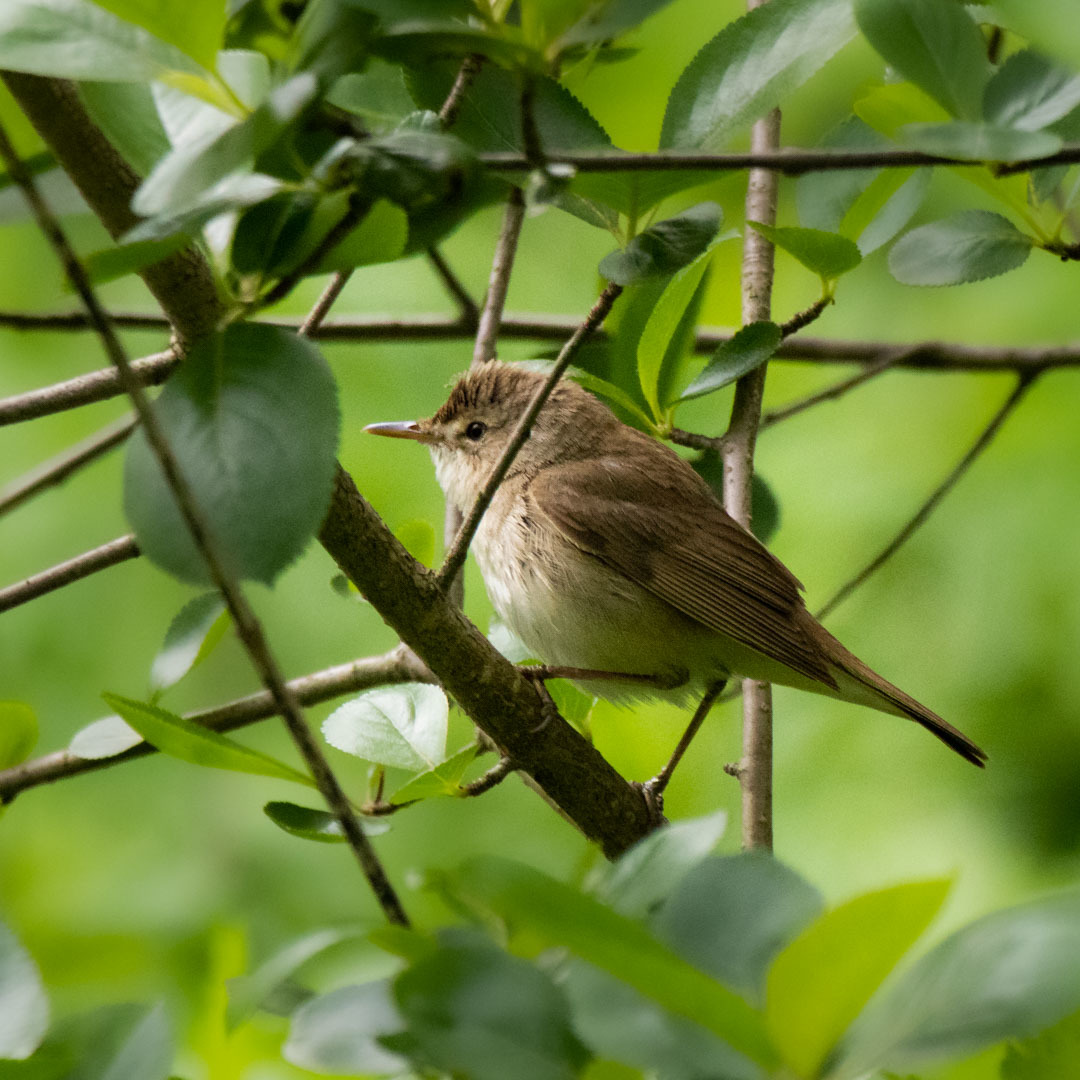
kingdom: Animalia
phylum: Chordata
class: Aves
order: Passeriformes
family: Acrocephalidae
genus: Acrocephalus
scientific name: Acrocephalus dumetorum
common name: Blyth's reed warbler
